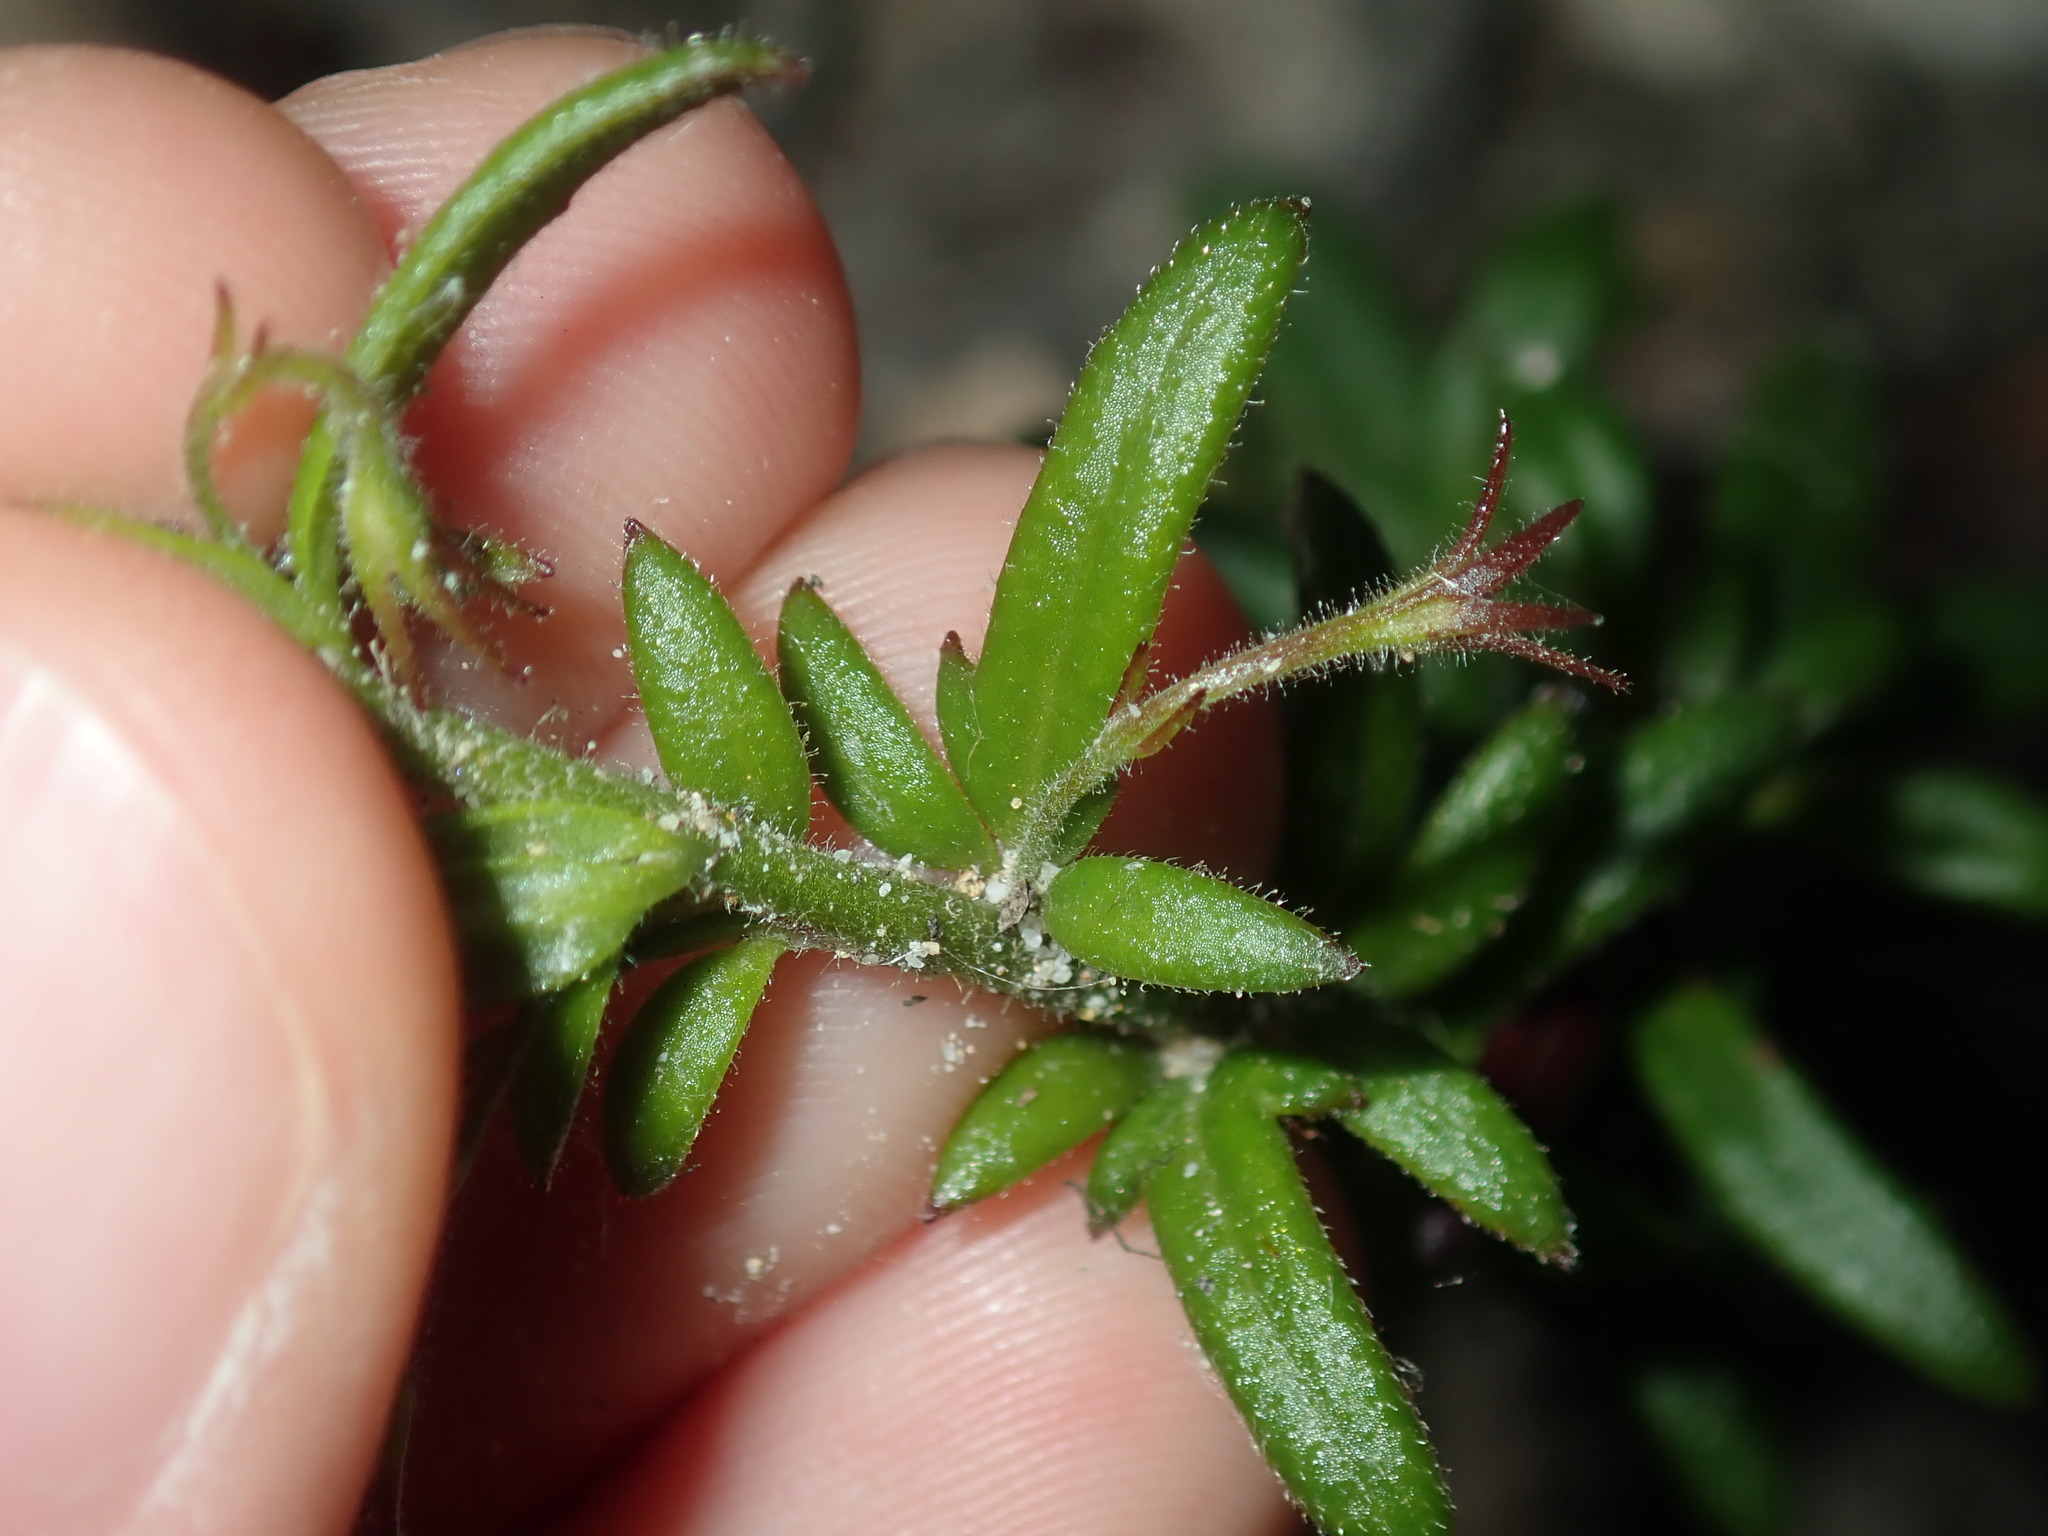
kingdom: Plantae
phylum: Tracheophyta
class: Magnoliopsida
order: Asterales
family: Goodeniaceae
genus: Goodenia
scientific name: Goodenia heterophylla
